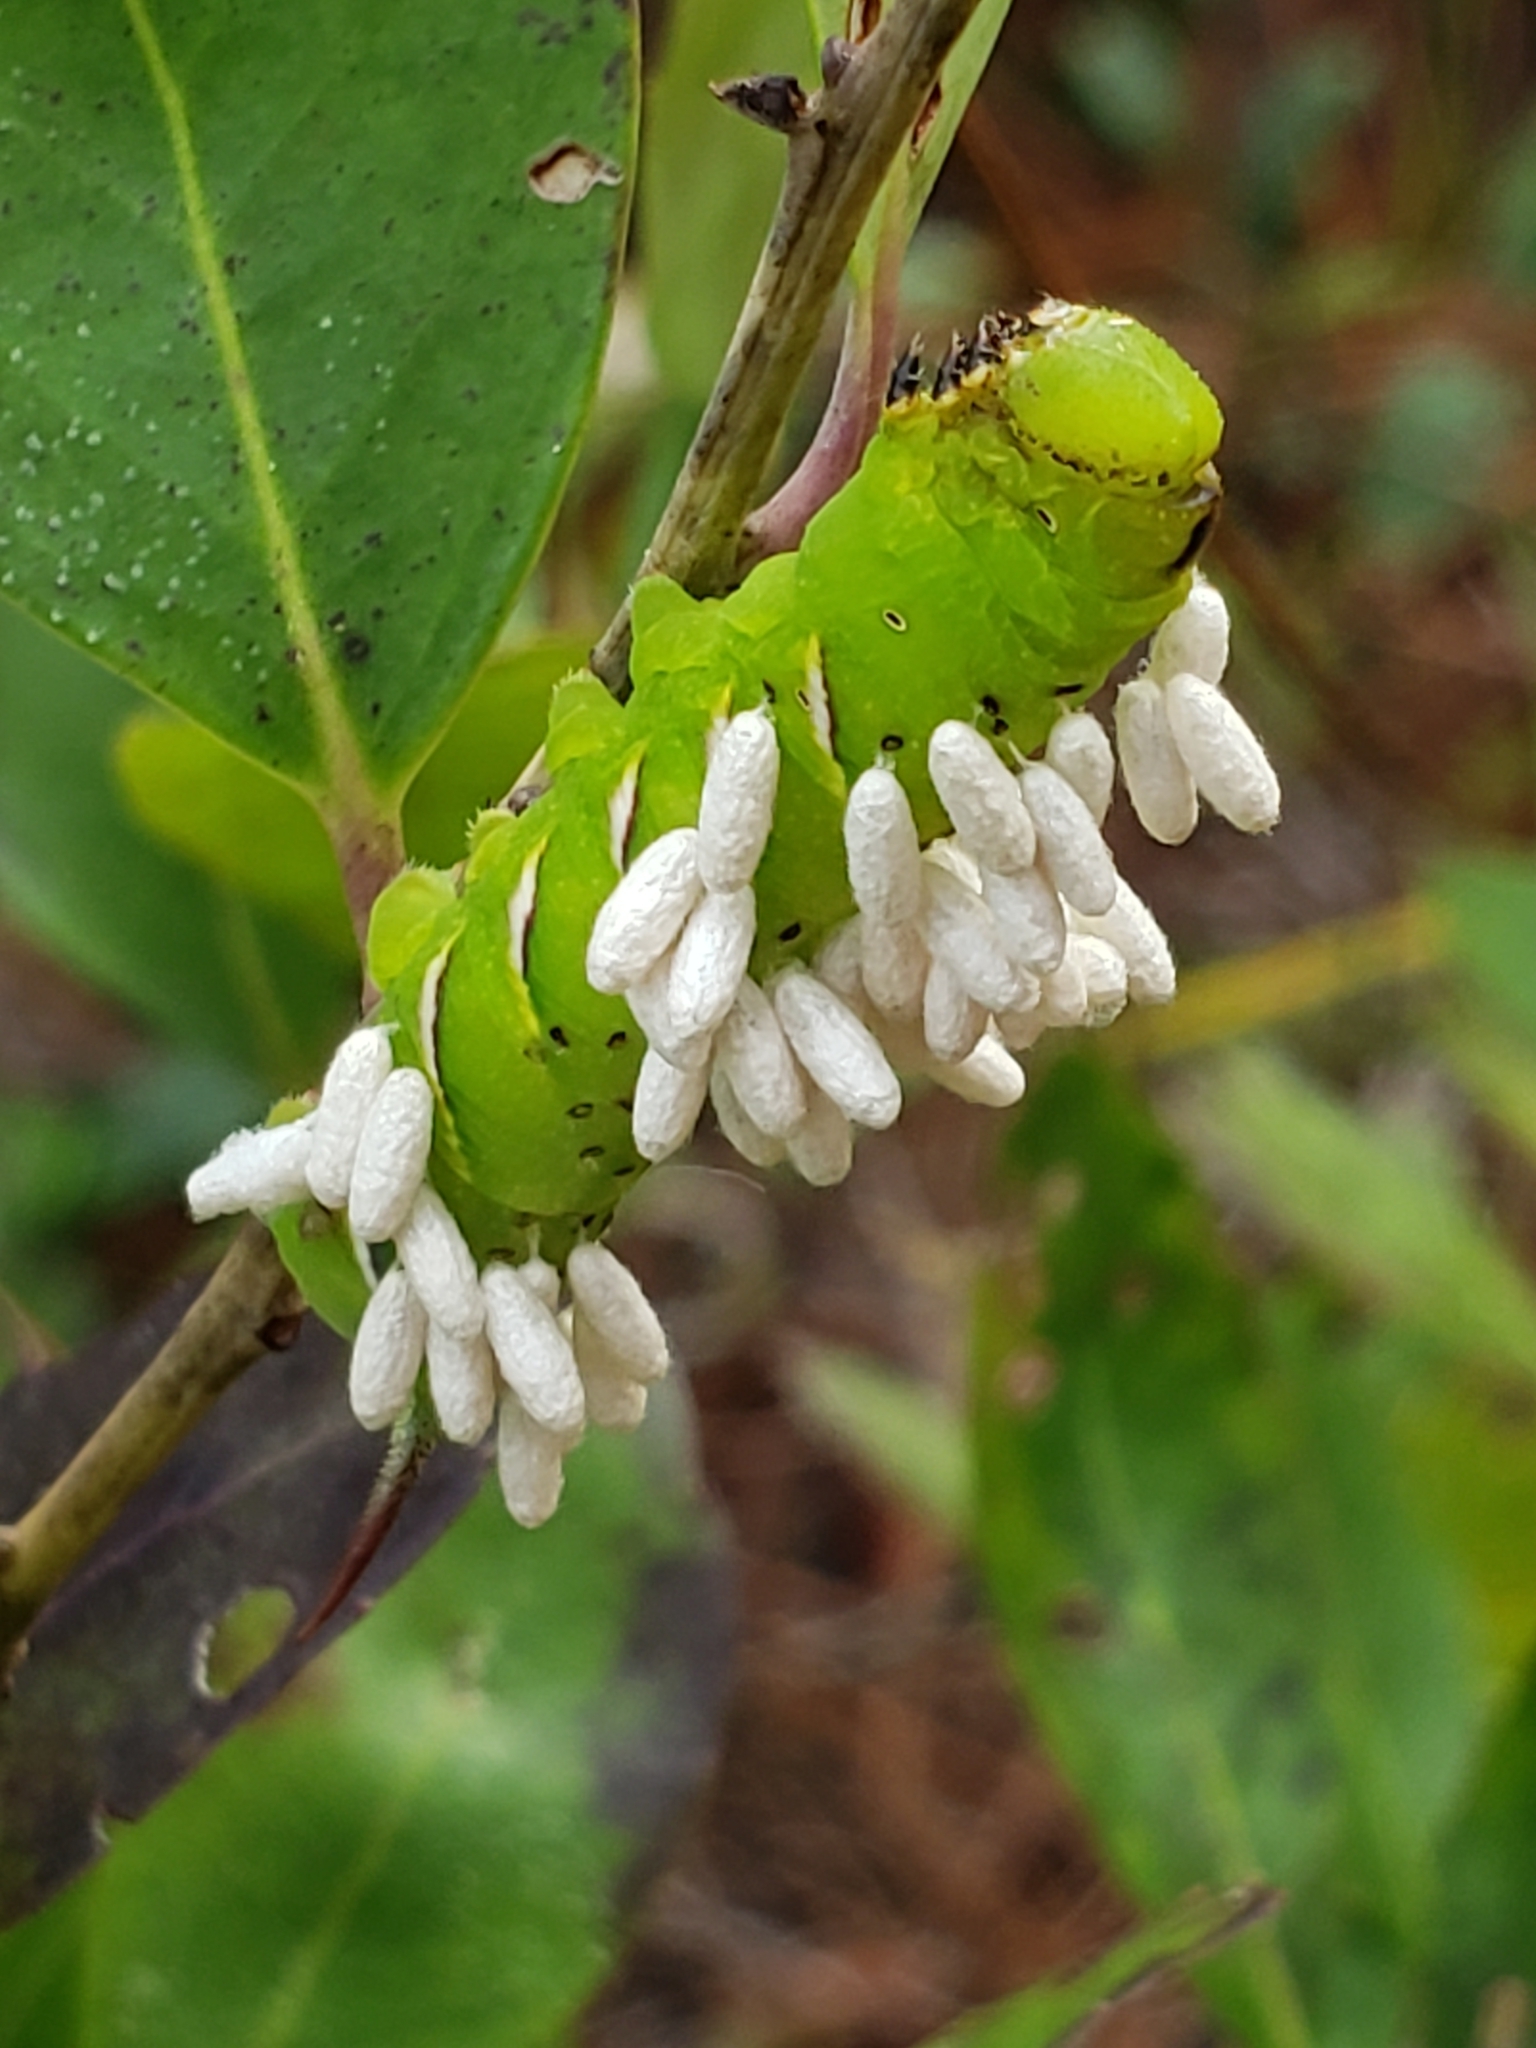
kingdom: Animalia
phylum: Arthropoda
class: Insecta
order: Hymenoptera
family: Braconidae
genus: Cotesia
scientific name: Cotesia congregata
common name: Hornworm parasitoid wasp
